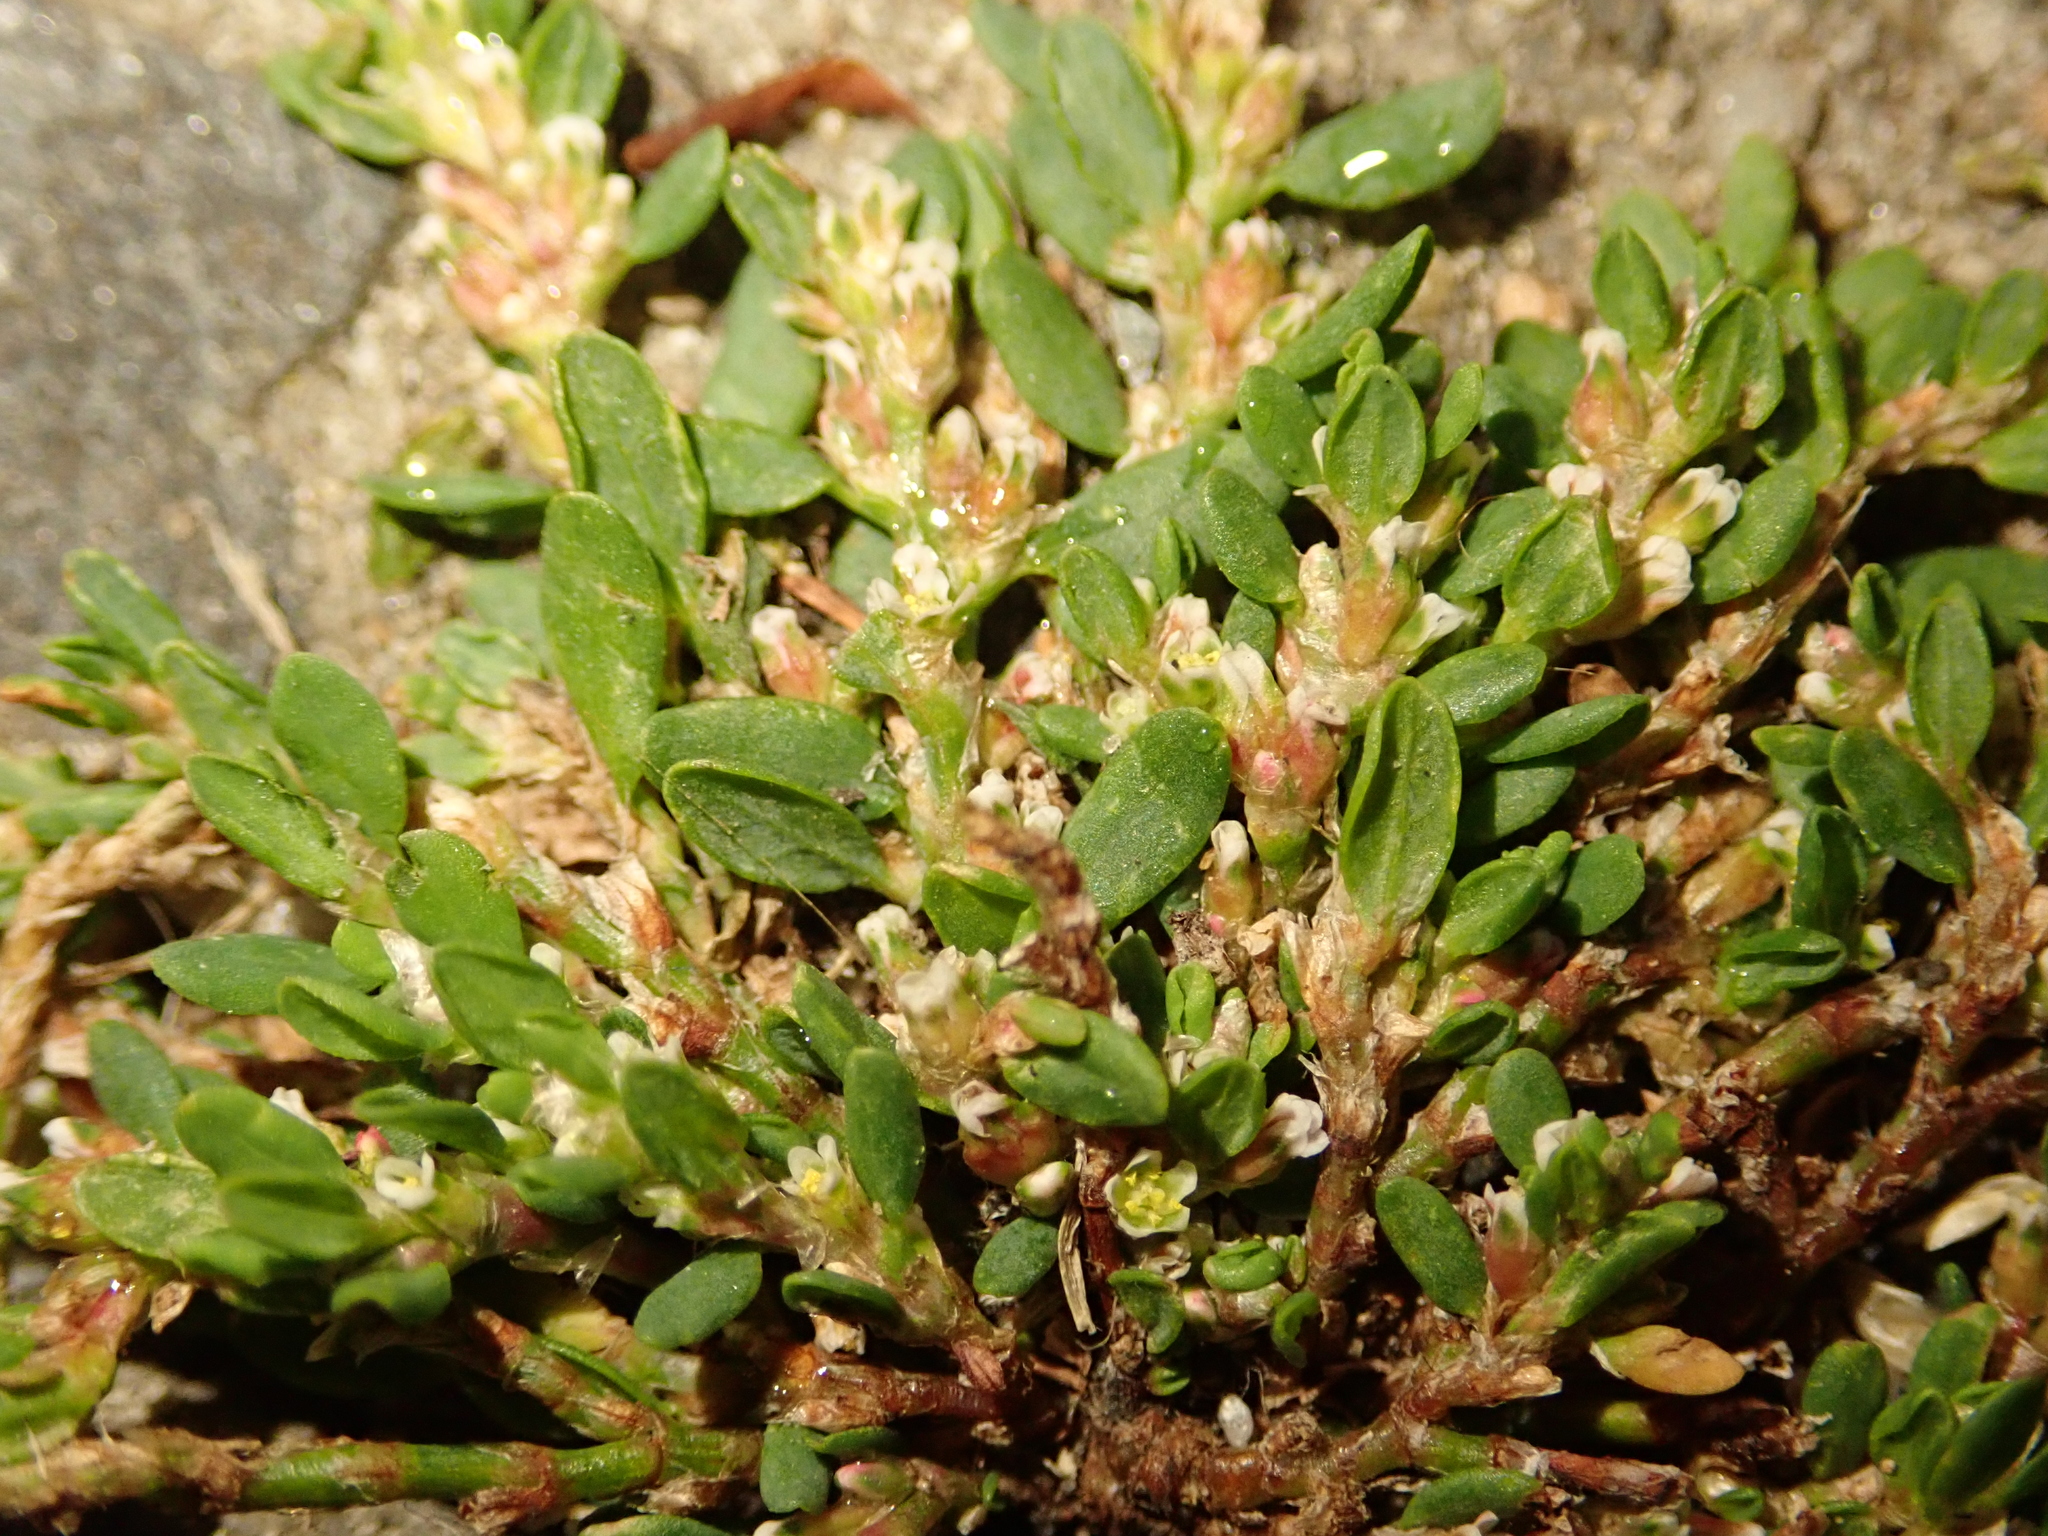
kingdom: Plantae
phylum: Tracheophyta
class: Magnoliopsida
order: Caryophyllales
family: Polygonaceae
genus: Polygonum
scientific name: Polygonum aviculare
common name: Prostrate knotweed
